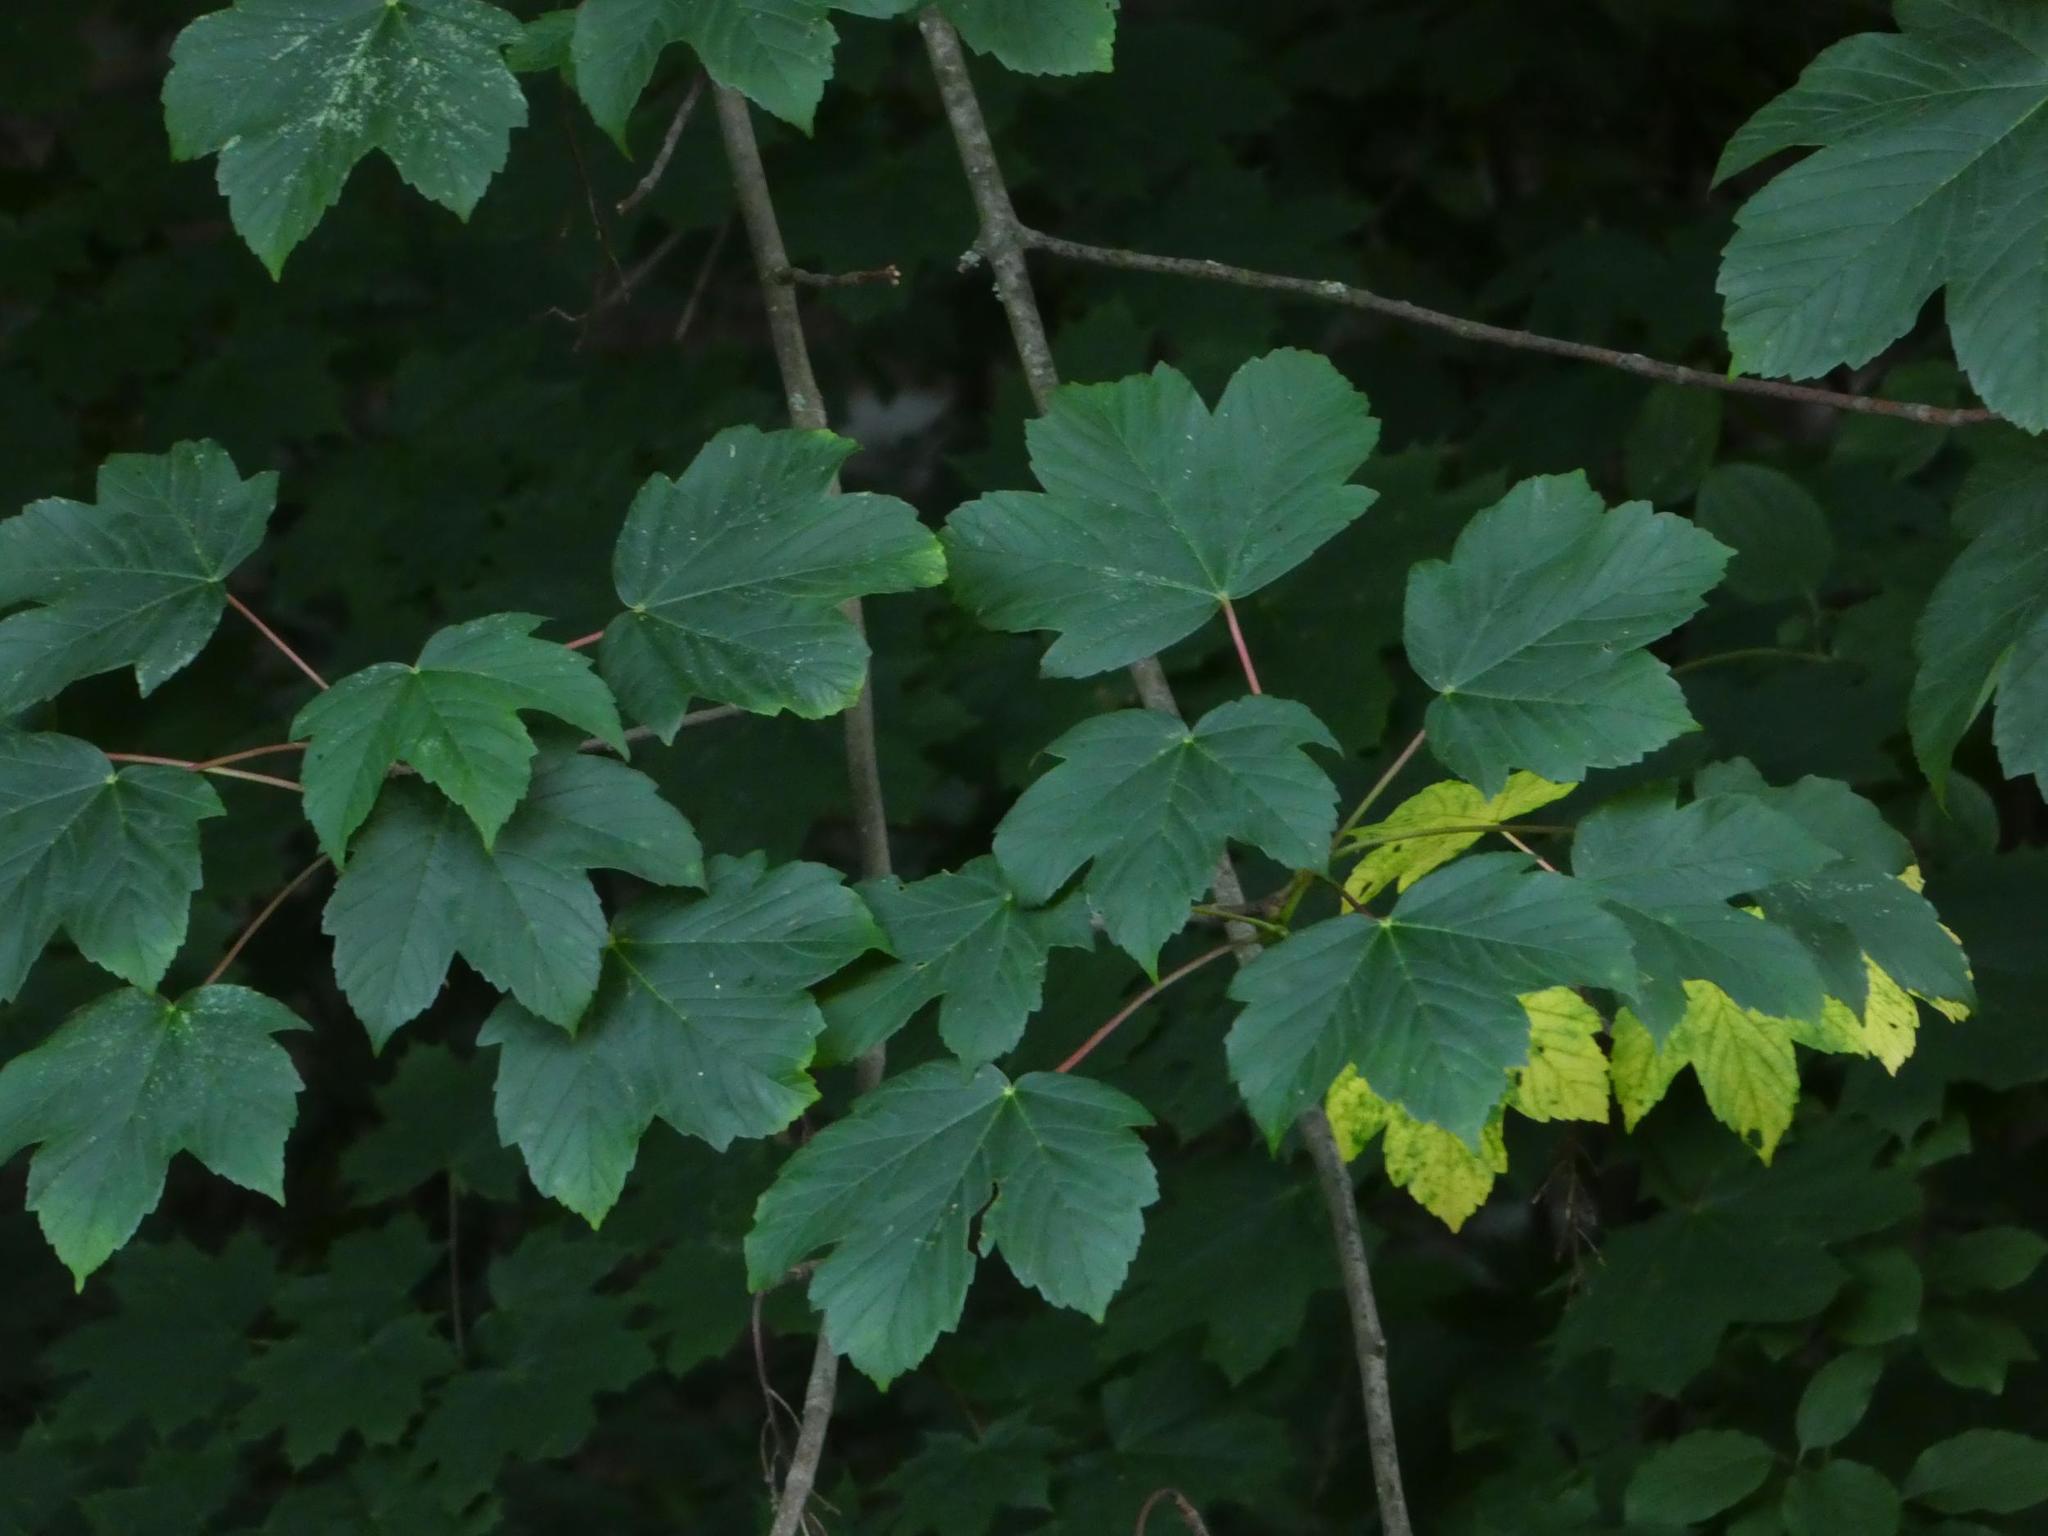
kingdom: Plantae
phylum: Tracheophyta
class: Magnoliopsida
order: Sapindales
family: Sapindaceae
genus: Acer
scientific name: Acer pseudoplatanus
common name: Sycamore
